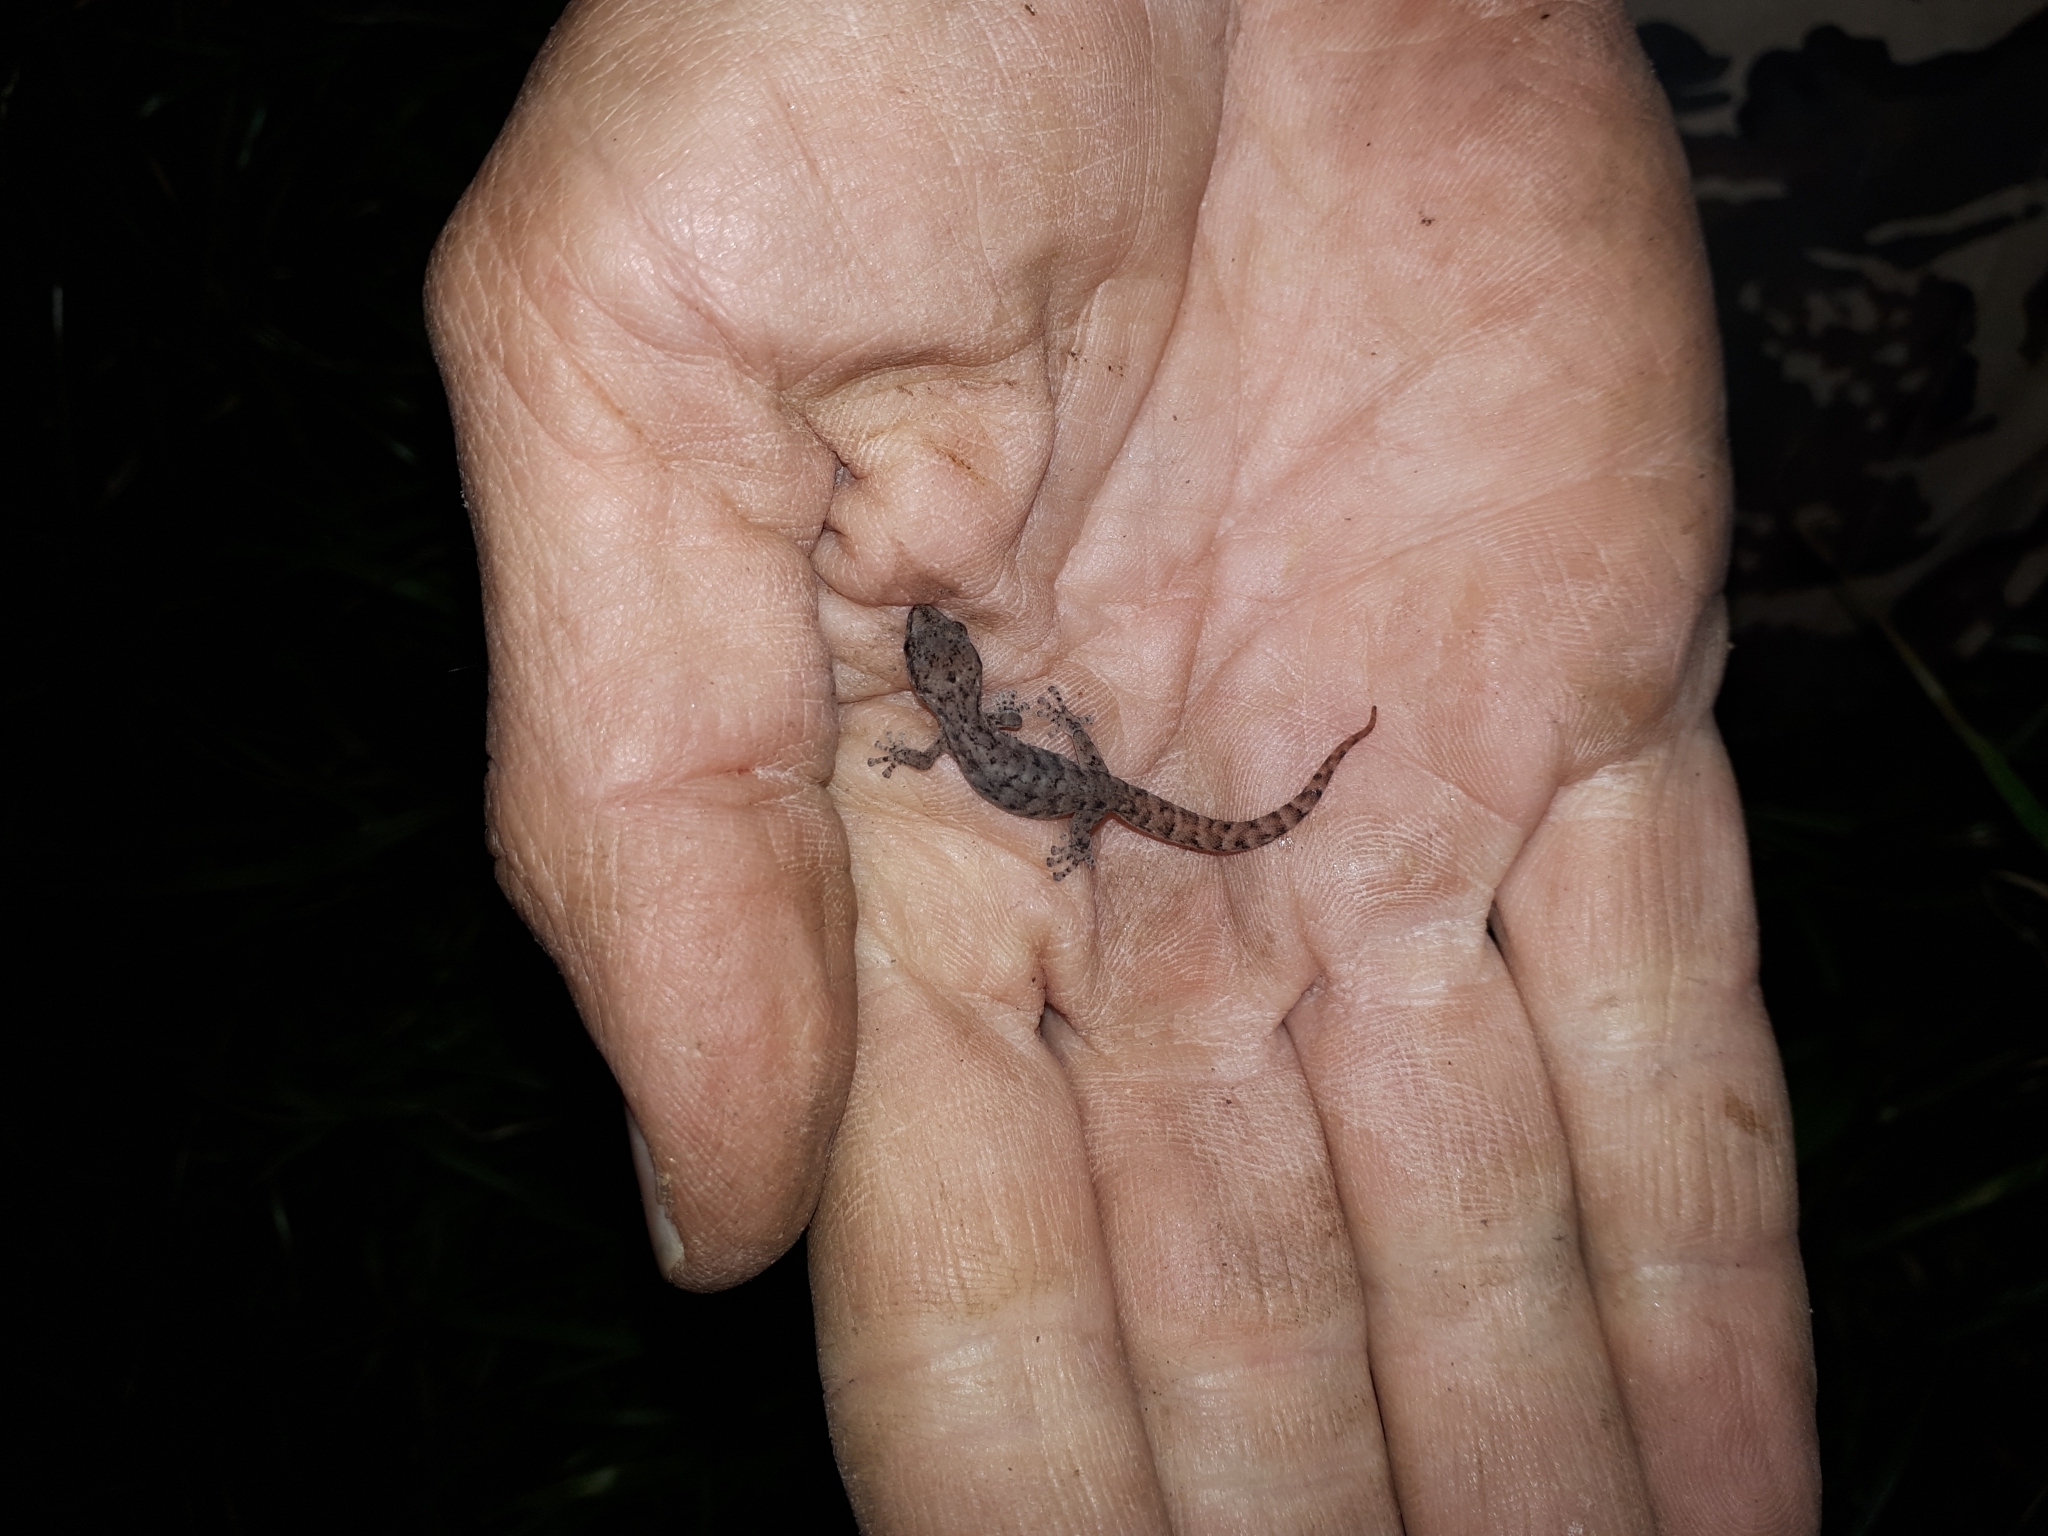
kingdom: Animalia
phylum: Chordata
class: Squamata
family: Gekkonidae
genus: Afrogecko
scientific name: Afrogecko porphyreus
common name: Marbled leaf-toed gecko
